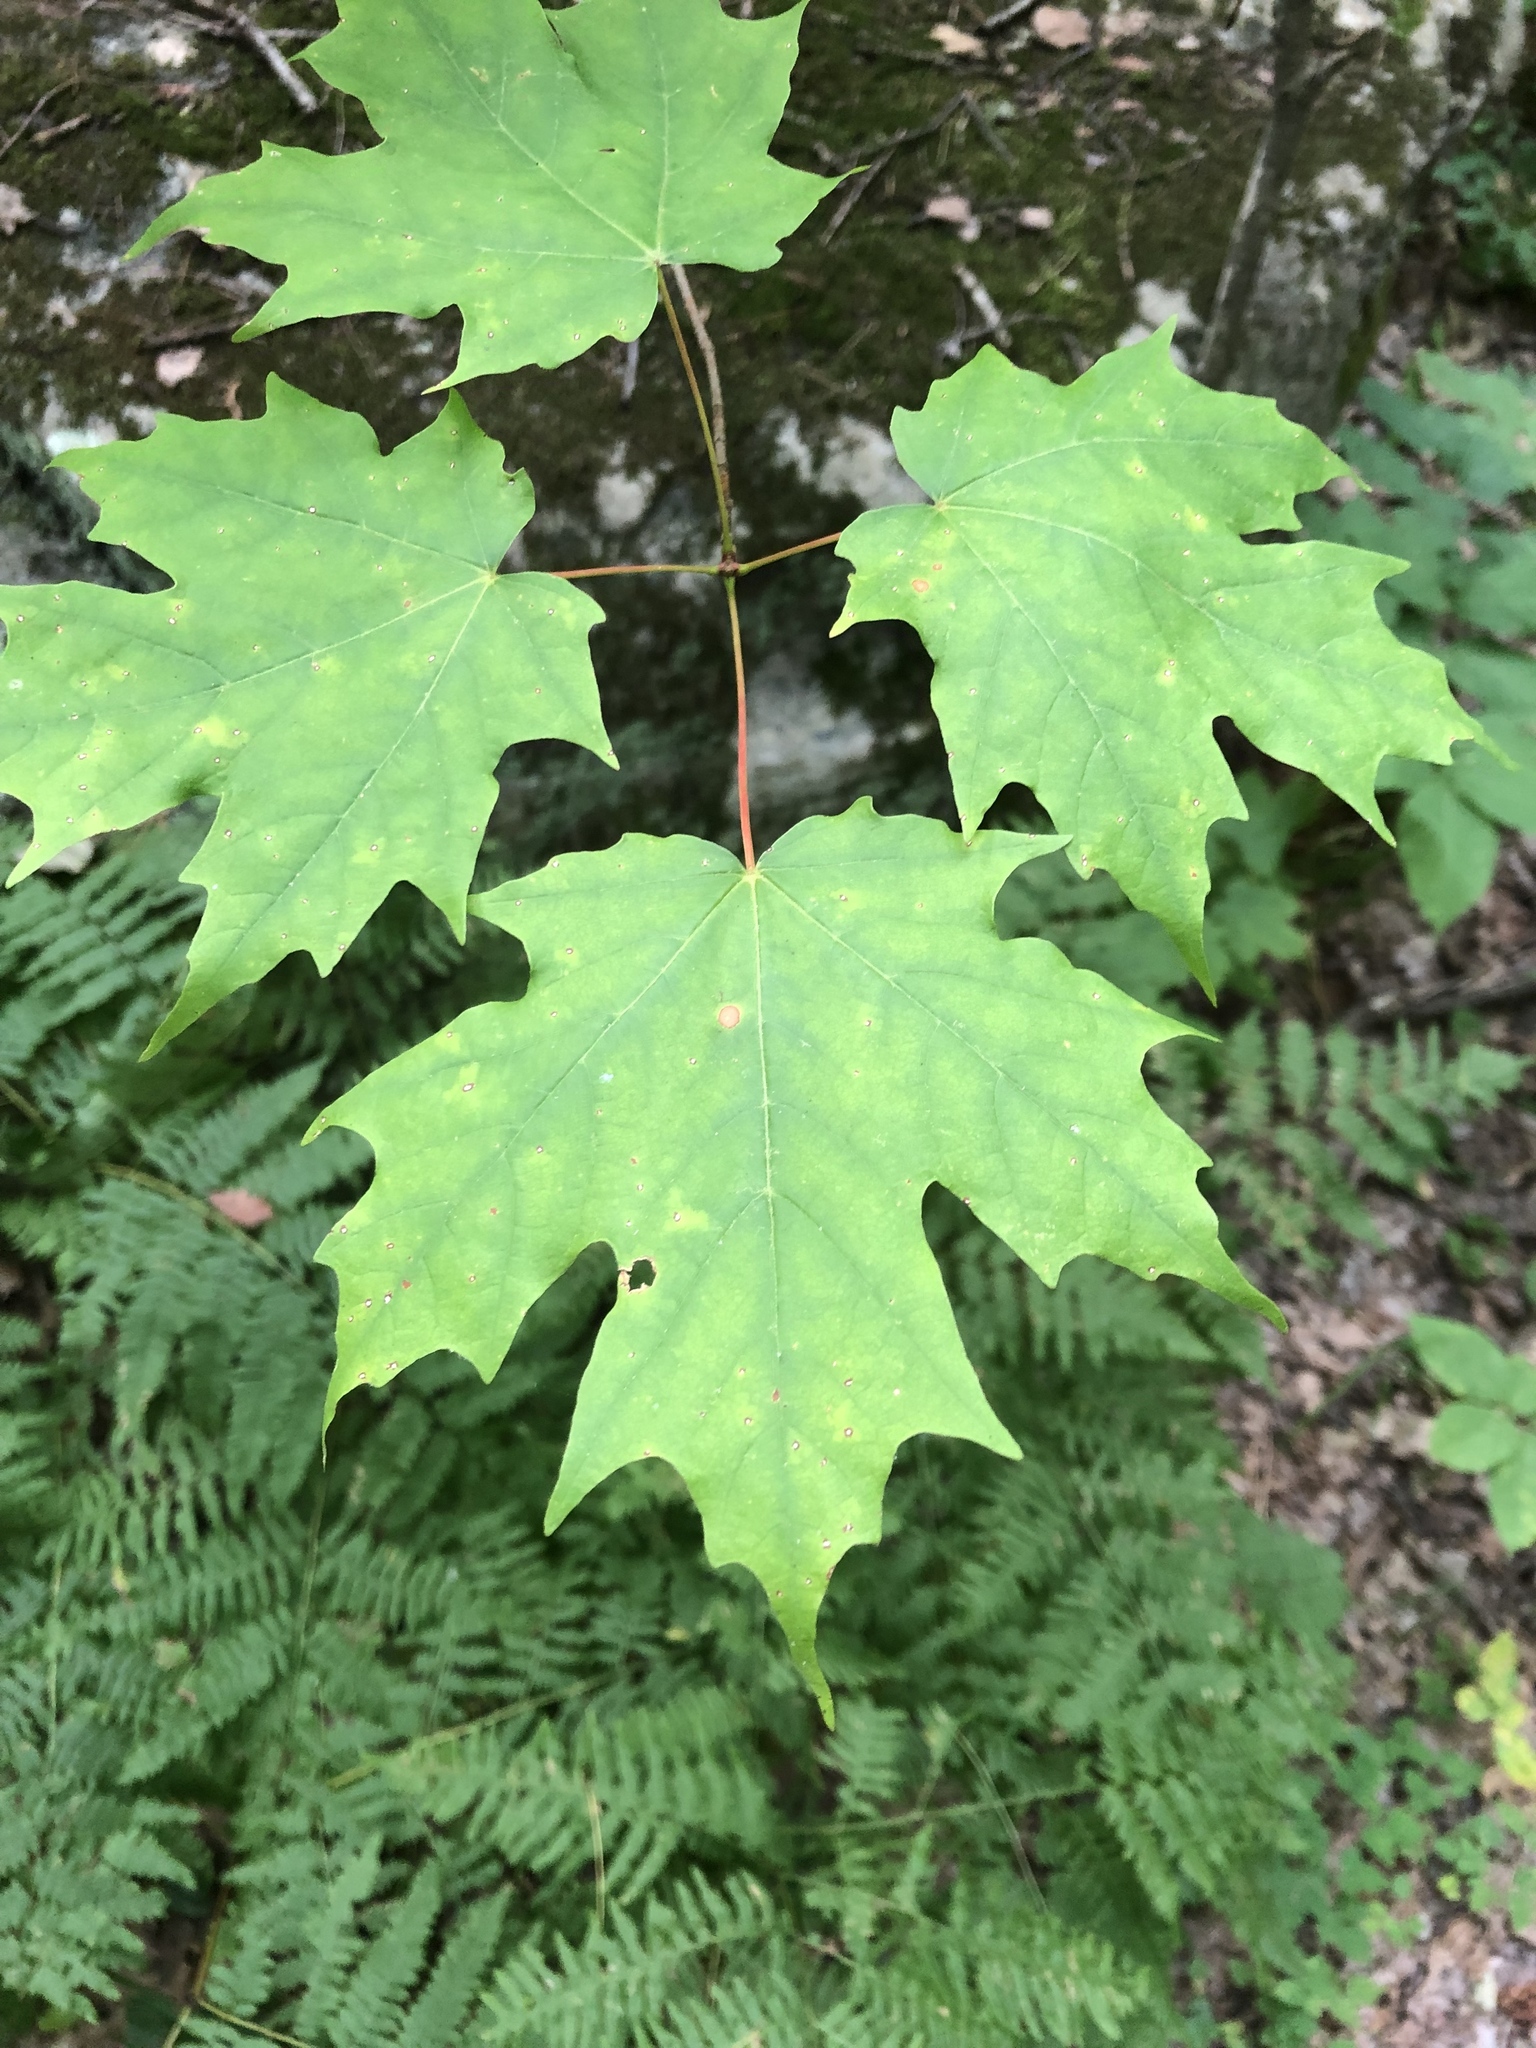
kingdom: Plantae
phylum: Tracheophyta
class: Magnoliopsida
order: Sapindales
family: Sapindaceae
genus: Acer
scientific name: Acer saccharum
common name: Sugar maple
